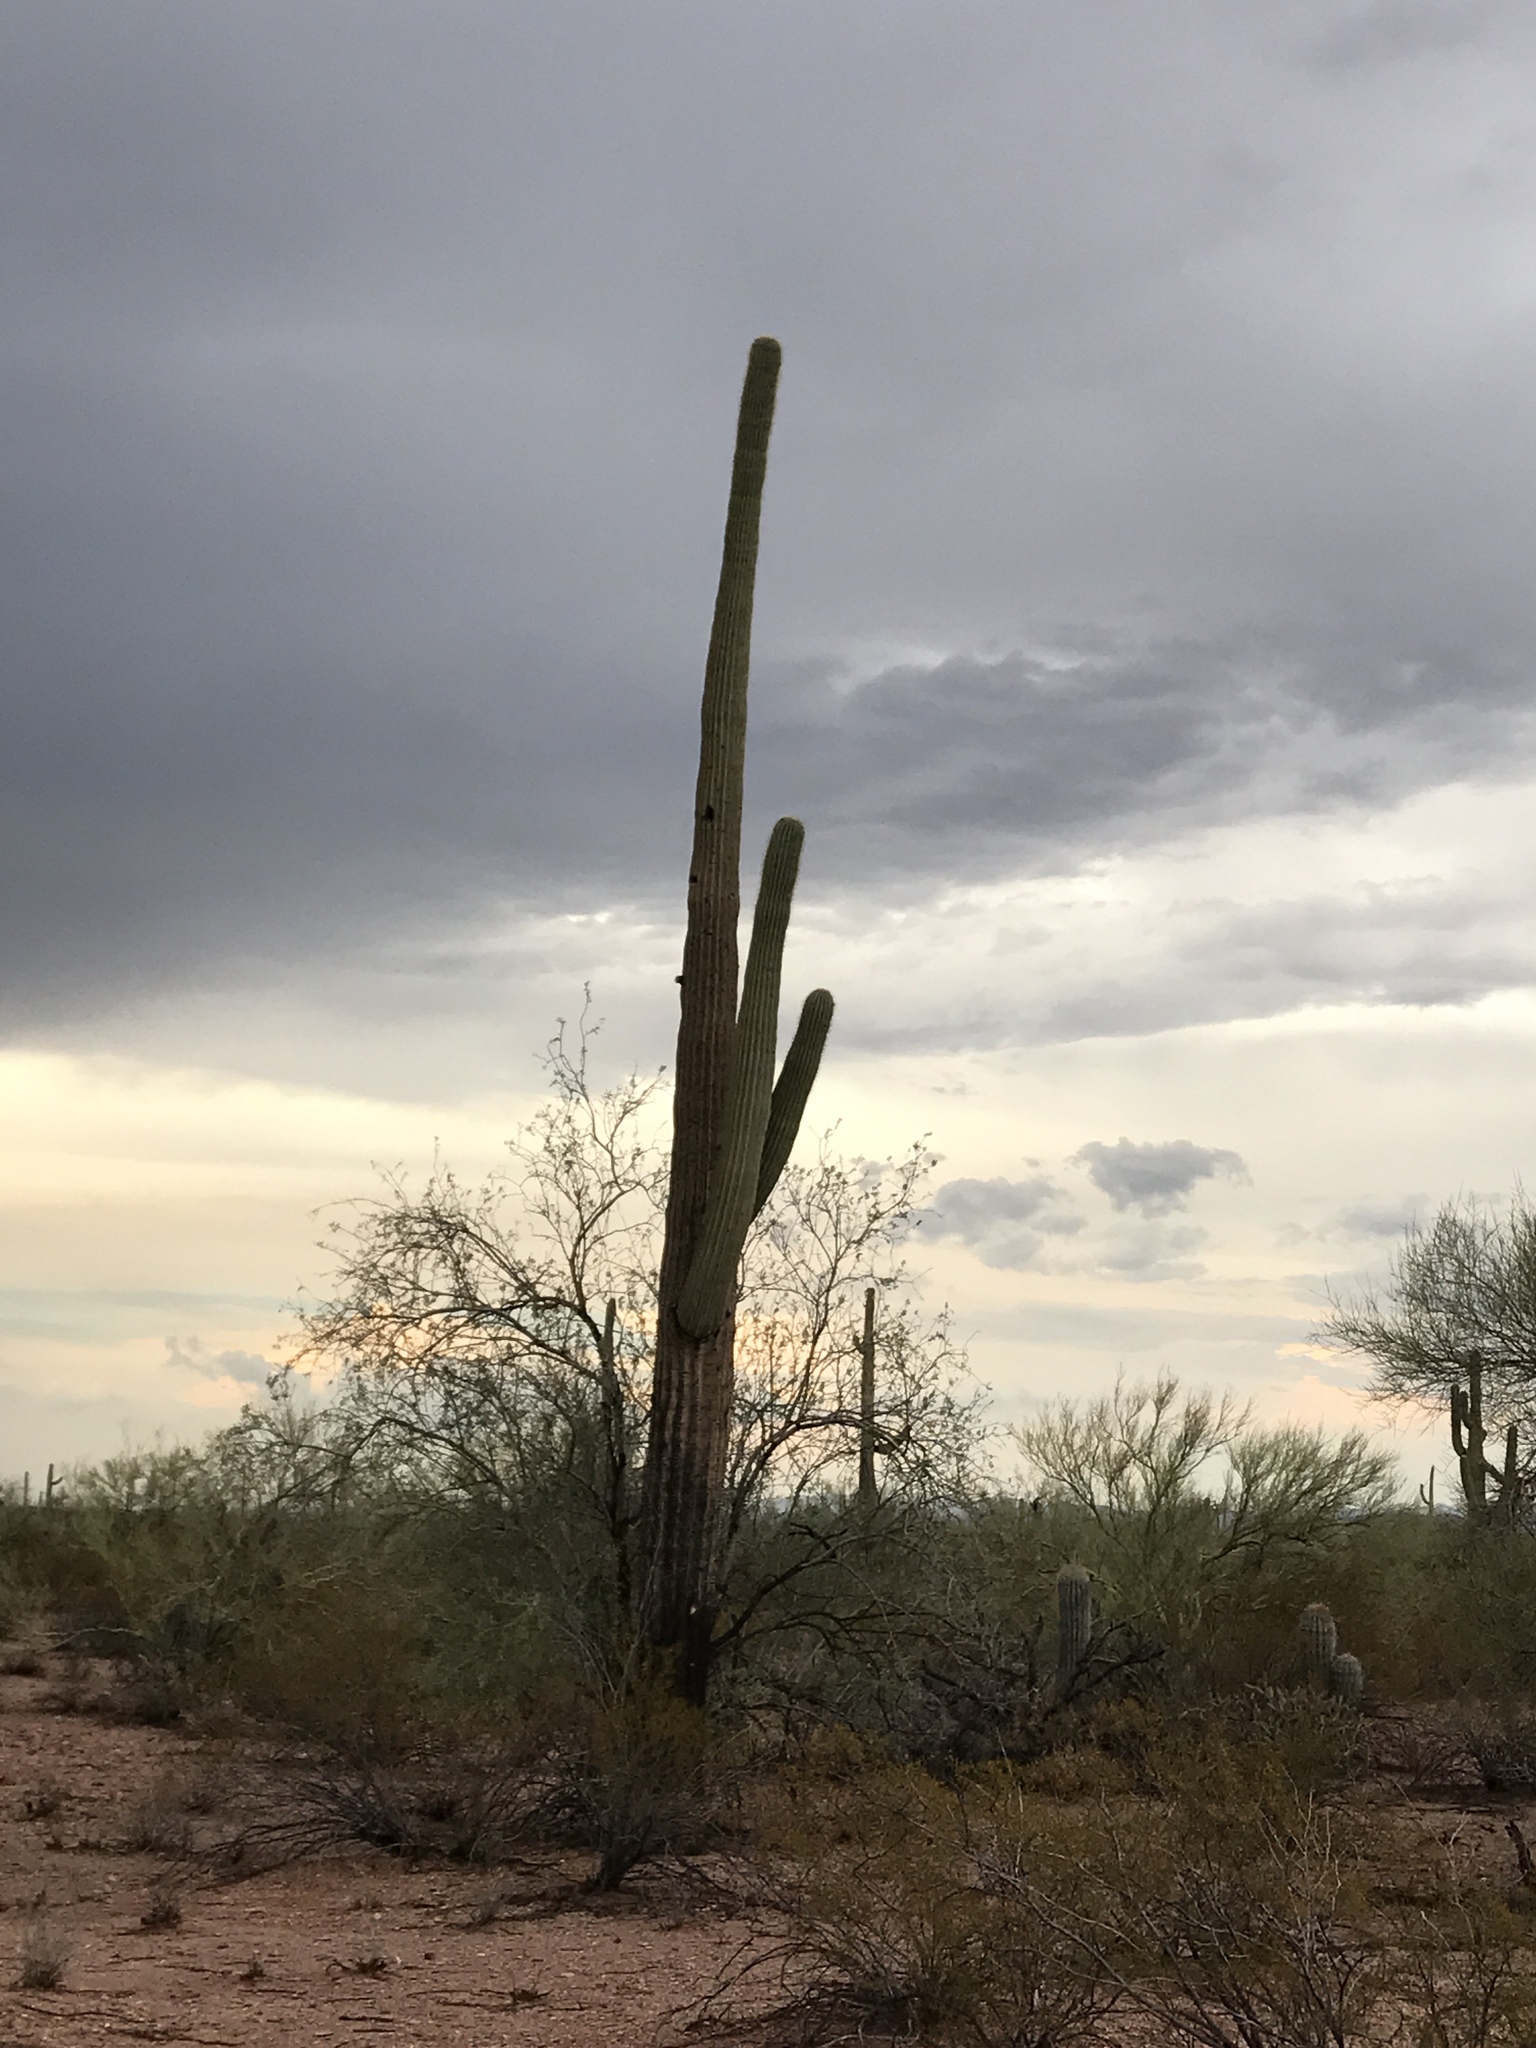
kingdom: Plantae
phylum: Tracheophyta
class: Magnoliopsida
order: Caryophyllales
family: Cactaceae
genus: Carnegiea
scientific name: Carnegiea gigantea
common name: Saguaro
